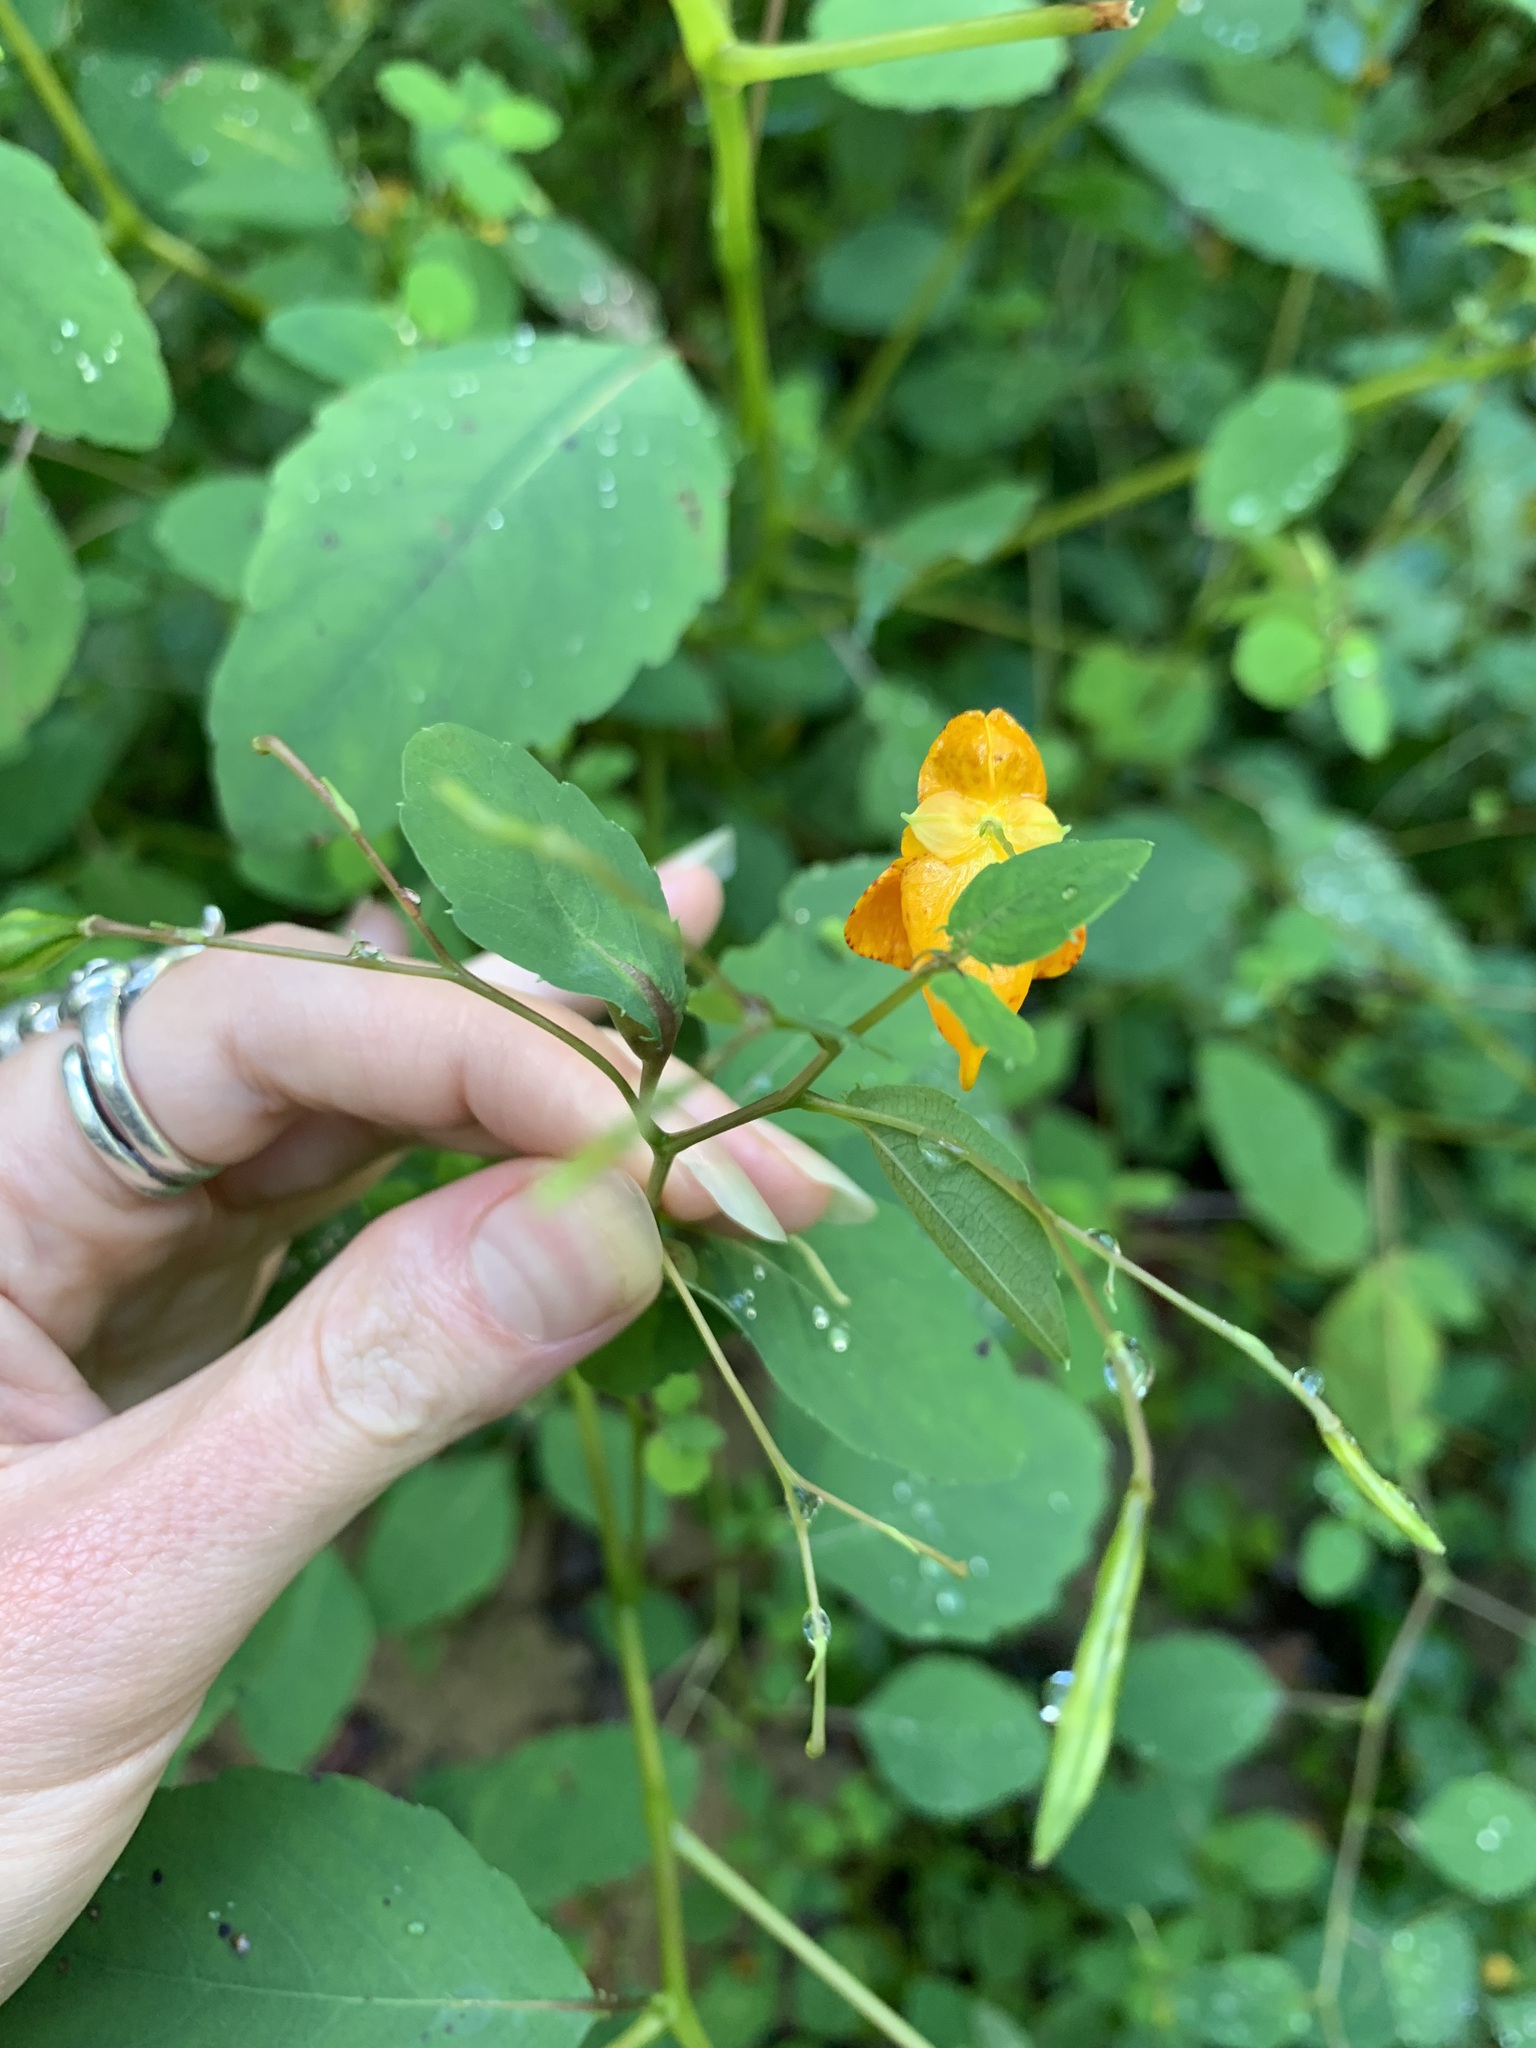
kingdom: Animalia
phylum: Arthropoda
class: Insecta
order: Diptera
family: Cecidomyiidae
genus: Neolasioptera
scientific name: Neolasioptera impatientifolia
